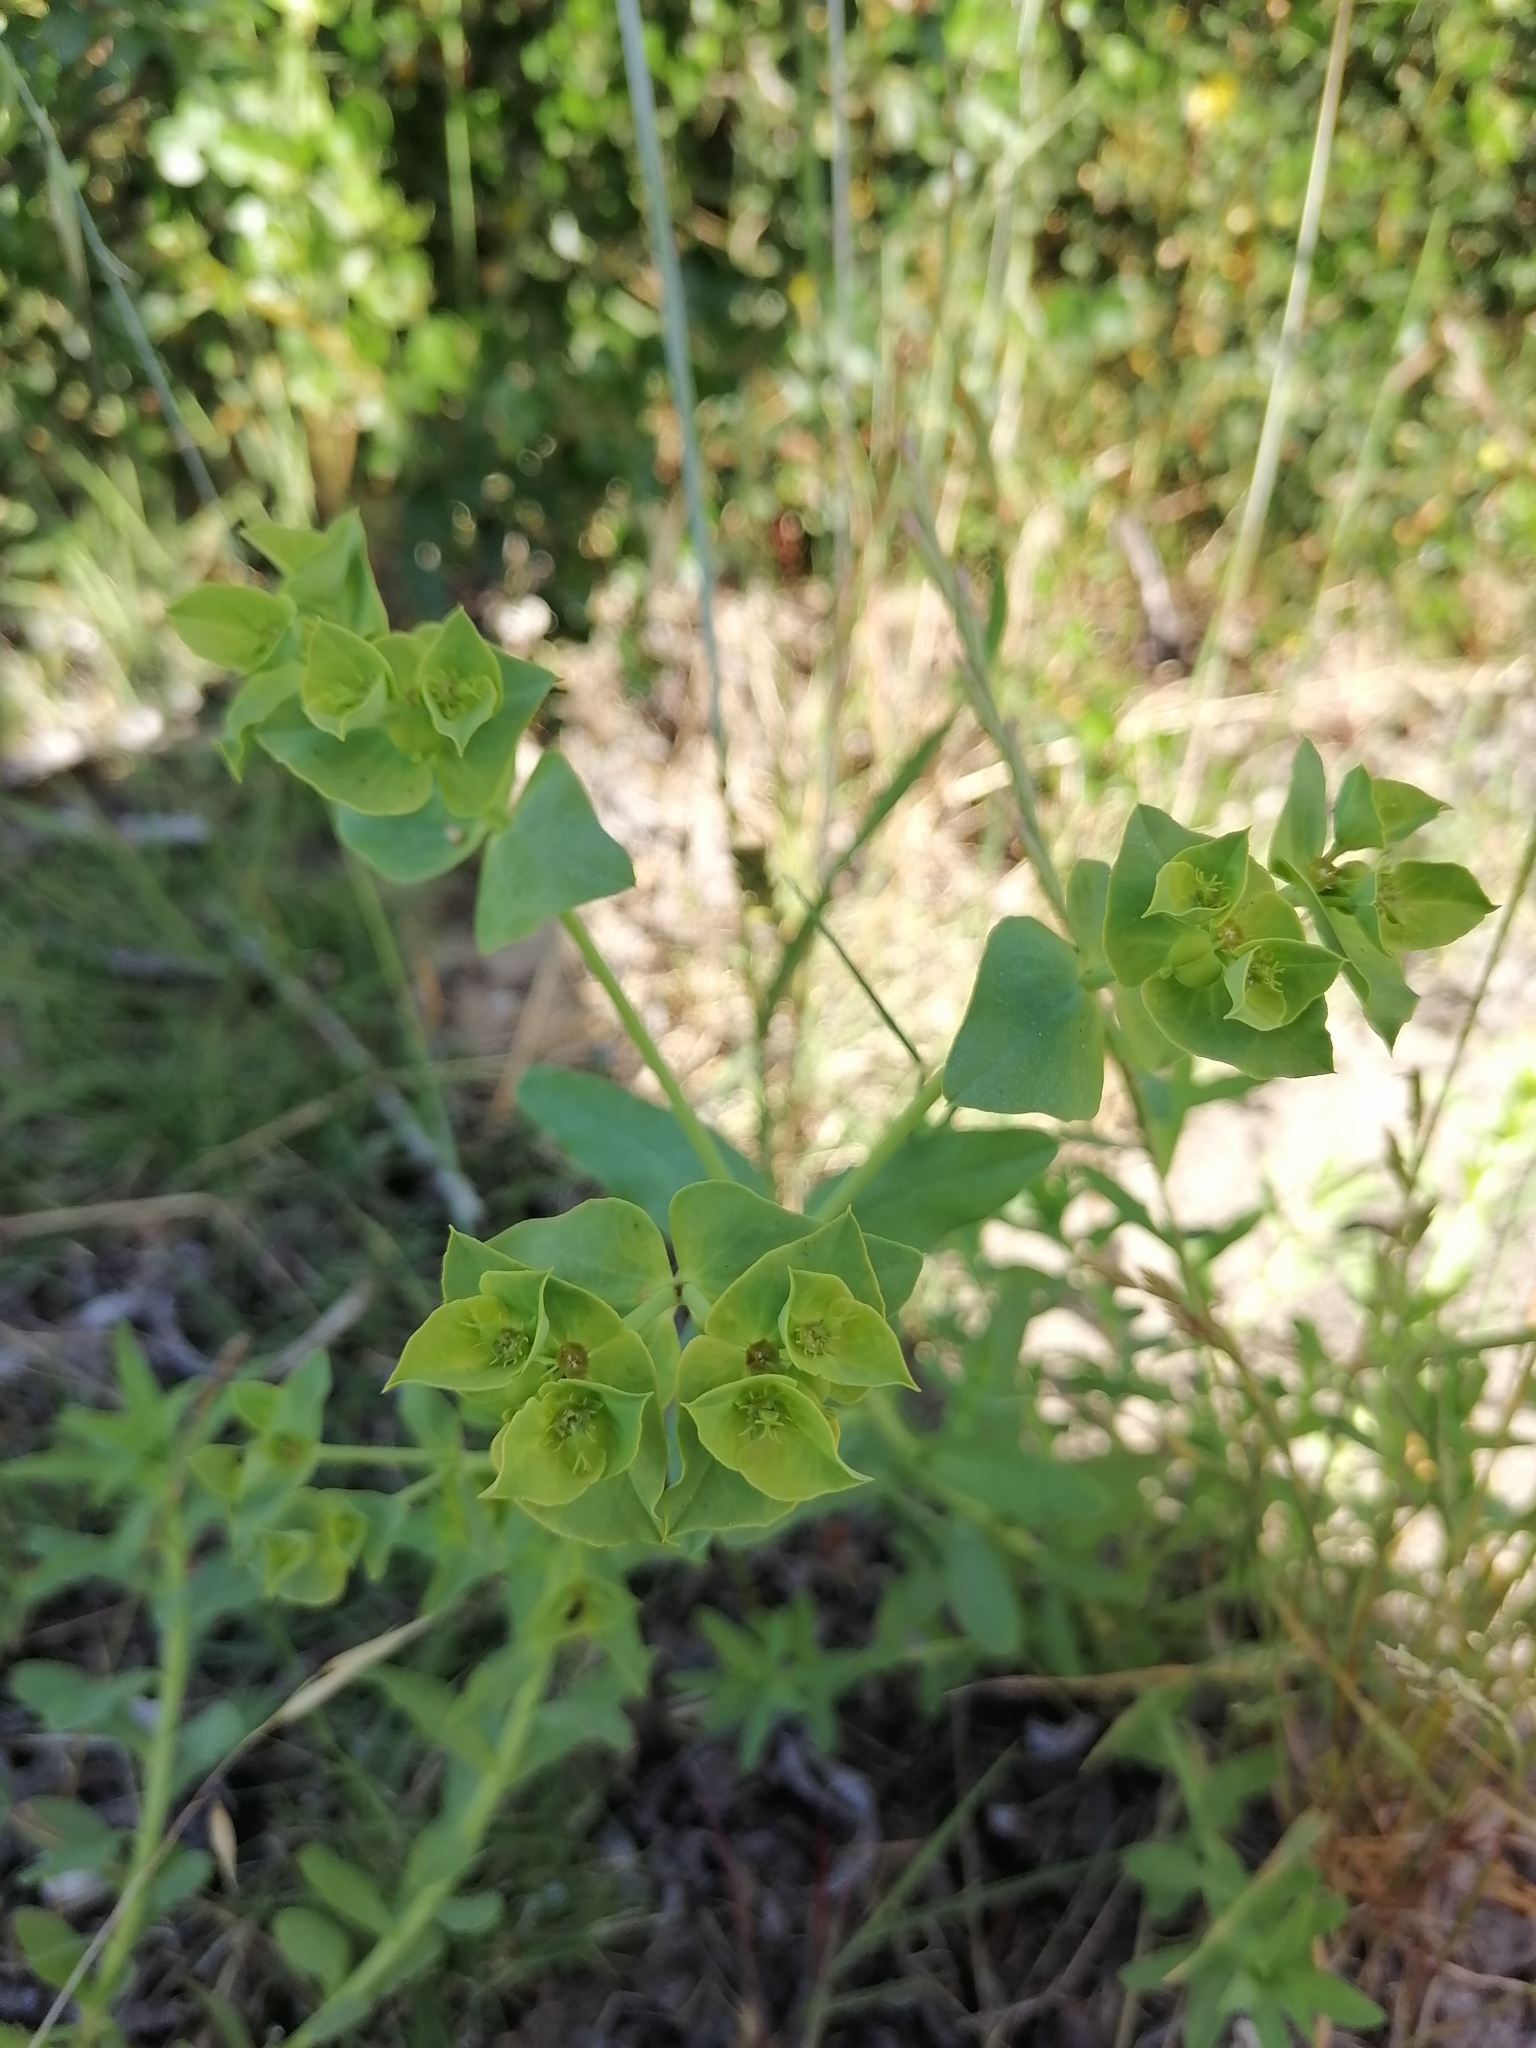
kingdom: Plantae
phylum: Tracheophyta
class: Magnoliopsida
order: Malpighiales
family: Euphorbiaceae
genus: Euphorbia
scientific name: Euphorbia terracina
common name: Geraldton carnation weed
